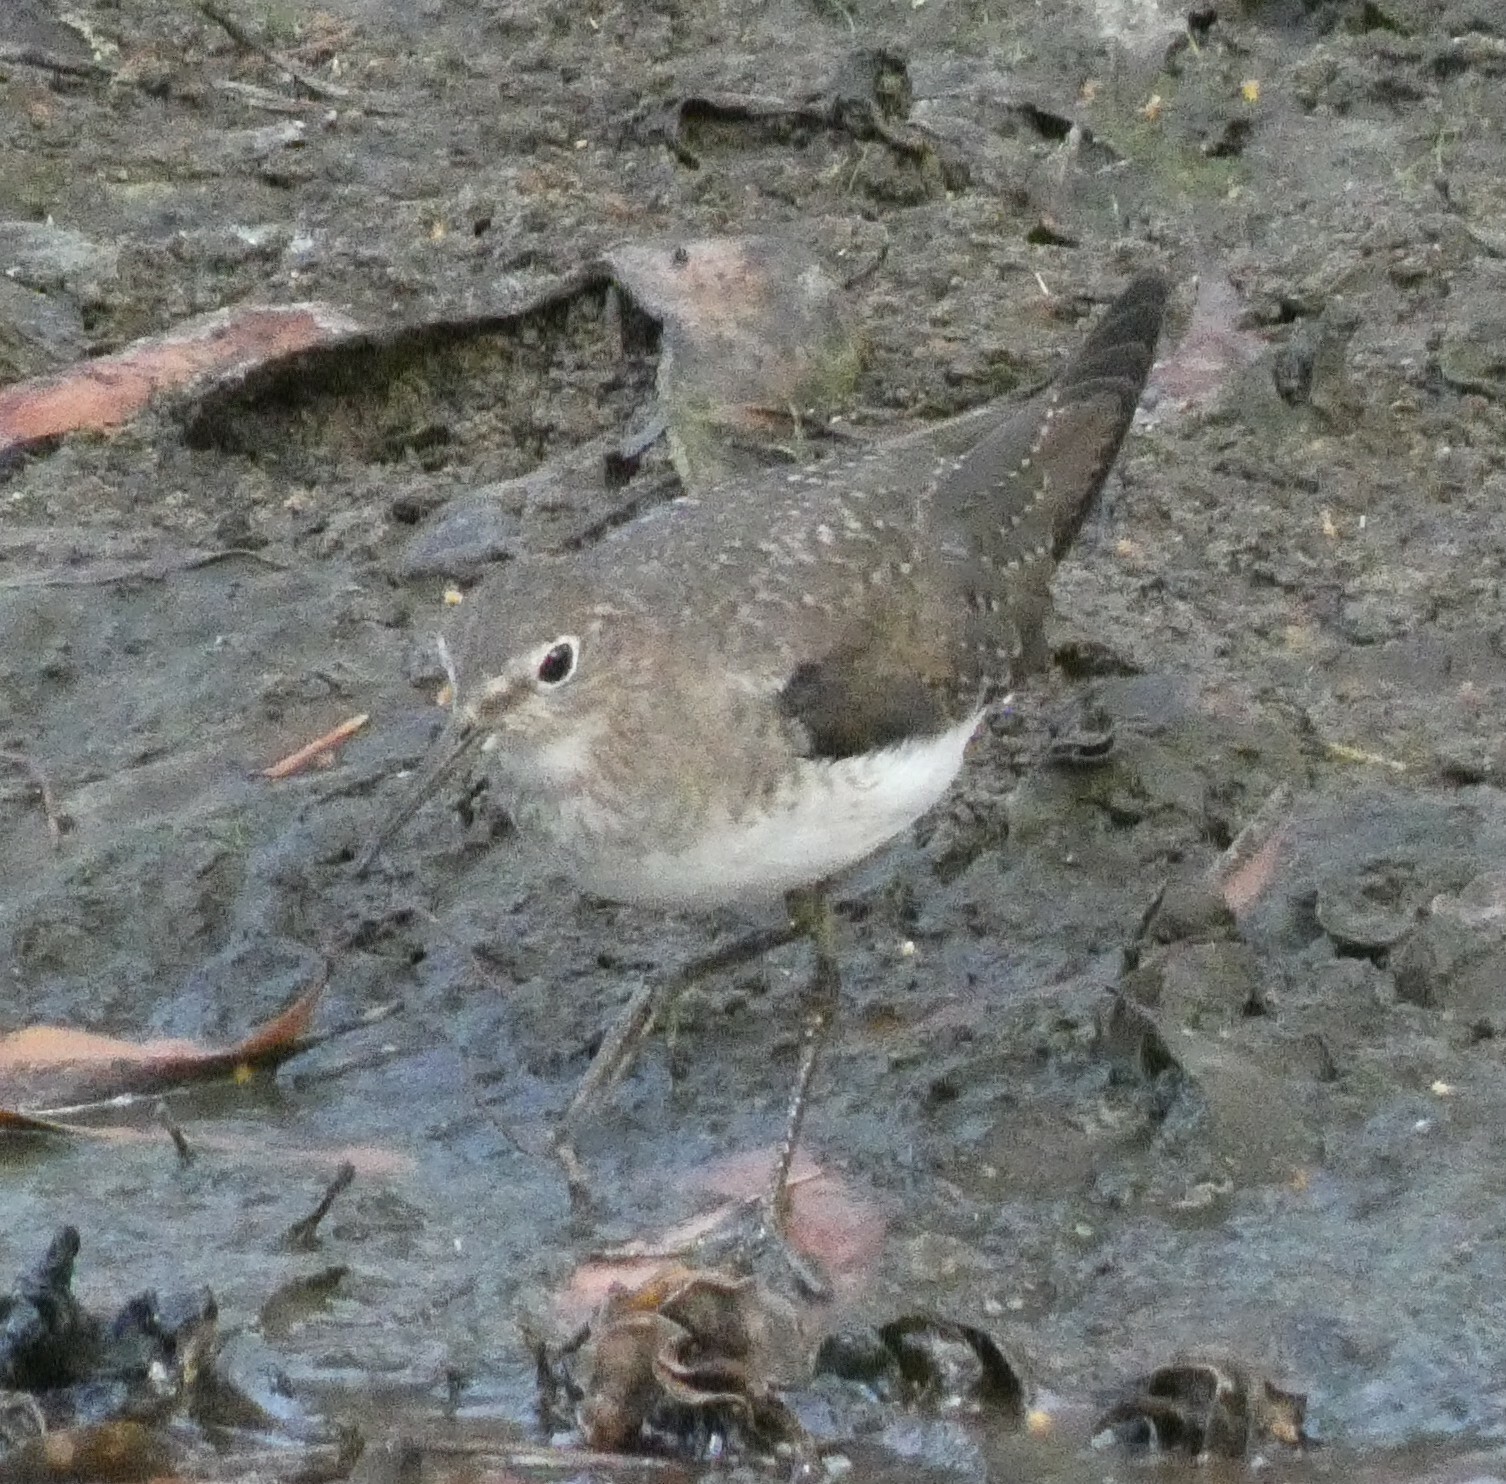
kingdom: Animalia
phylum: Chordata
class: Aves
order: Charadriiformes
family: Scolopacidae
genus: Tringa
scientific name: Tringa solitaria
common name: Solitary sandpiper
